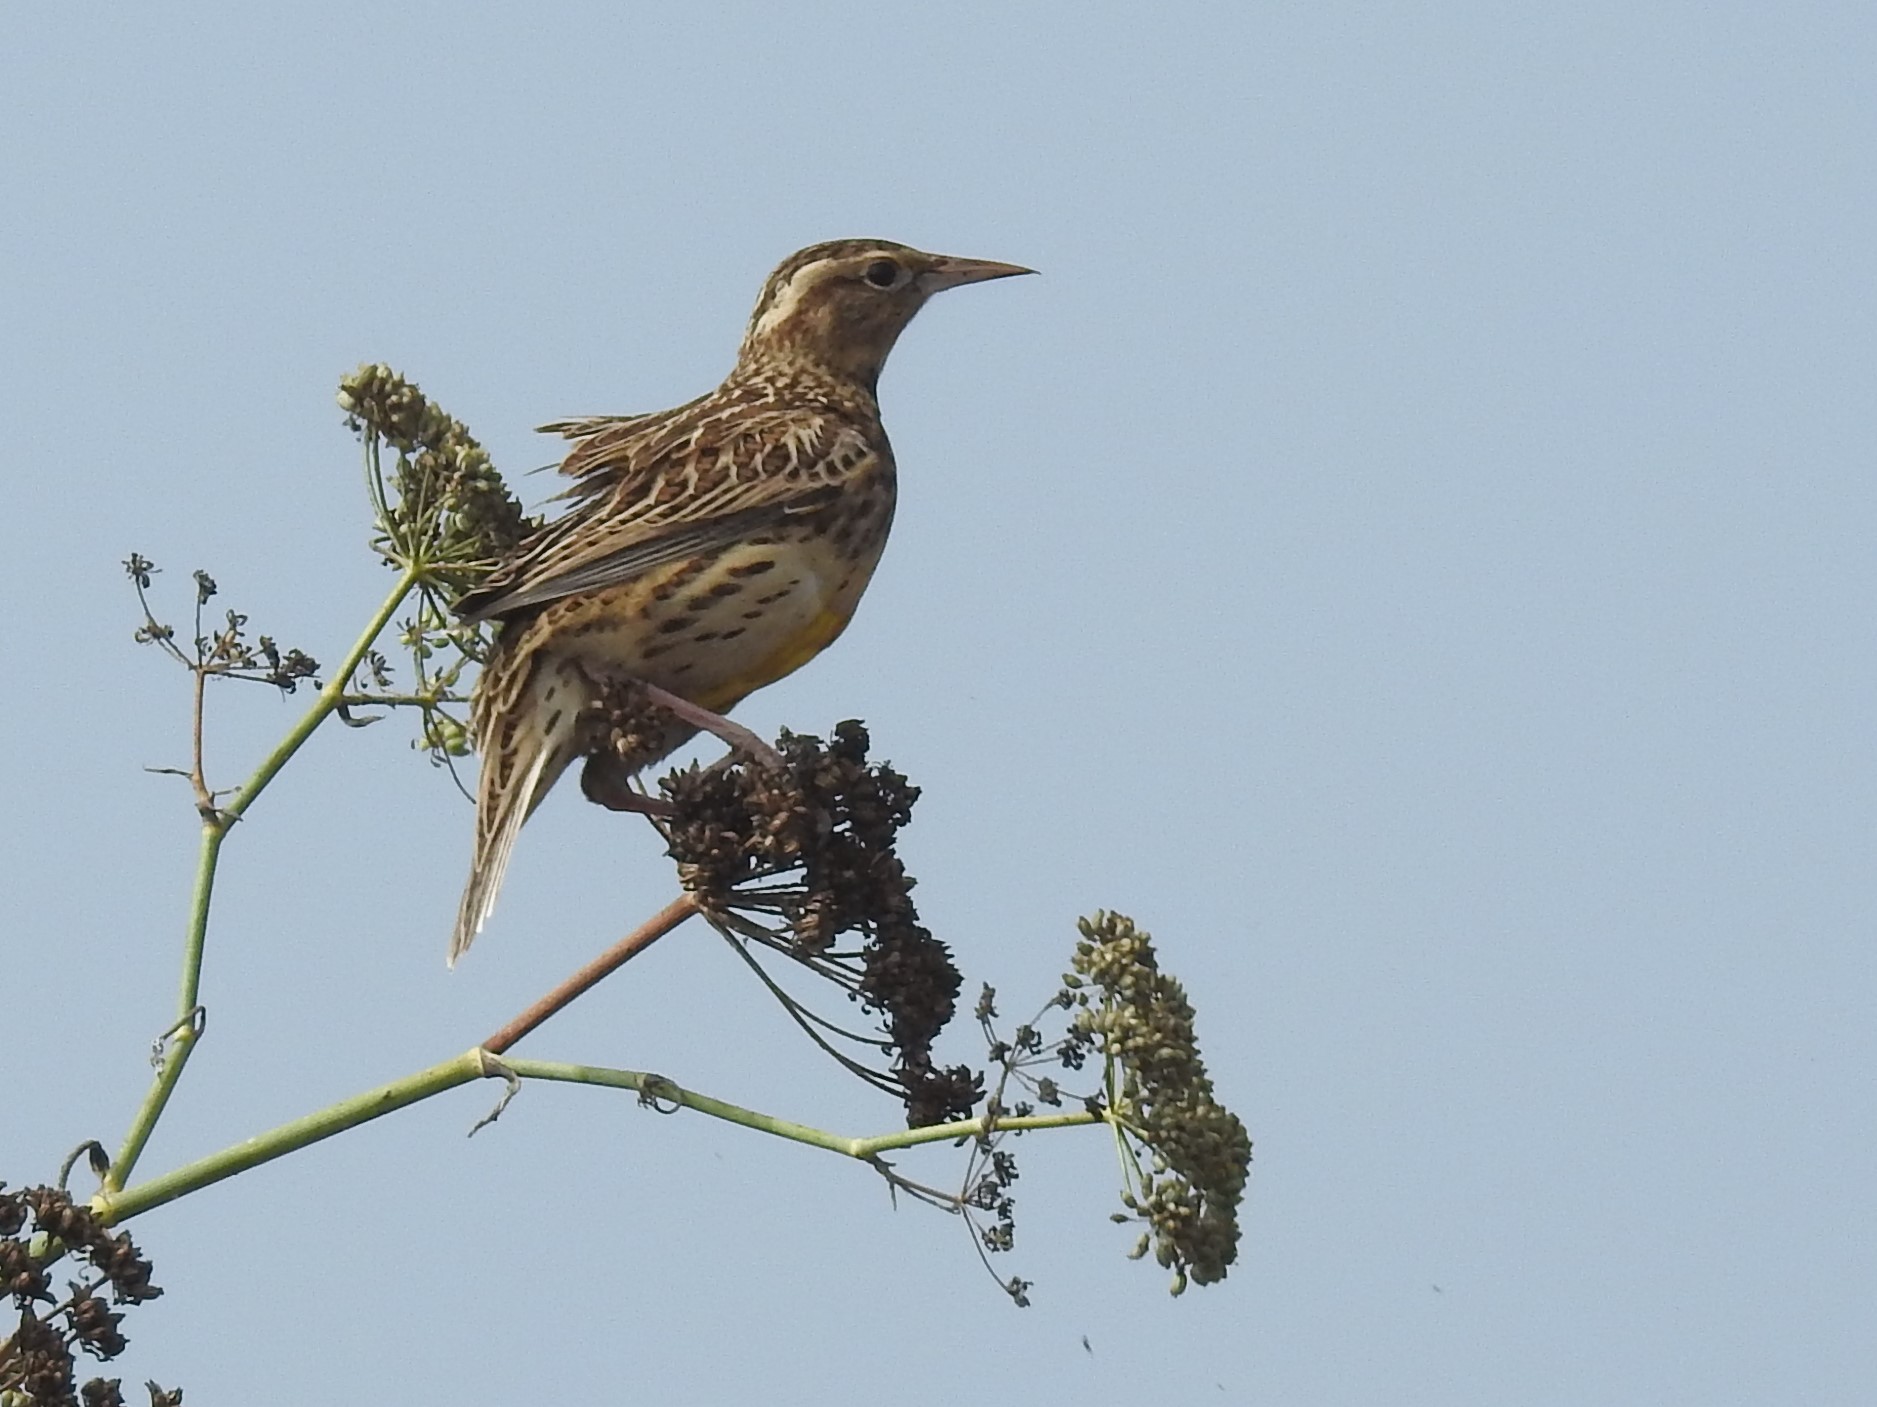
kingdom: Animalia
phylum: Chordata
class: Aves
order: Passeriformes
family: Icteridae
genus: Sturnella
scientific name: Sturnella neglecta
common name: Western meadowlark
